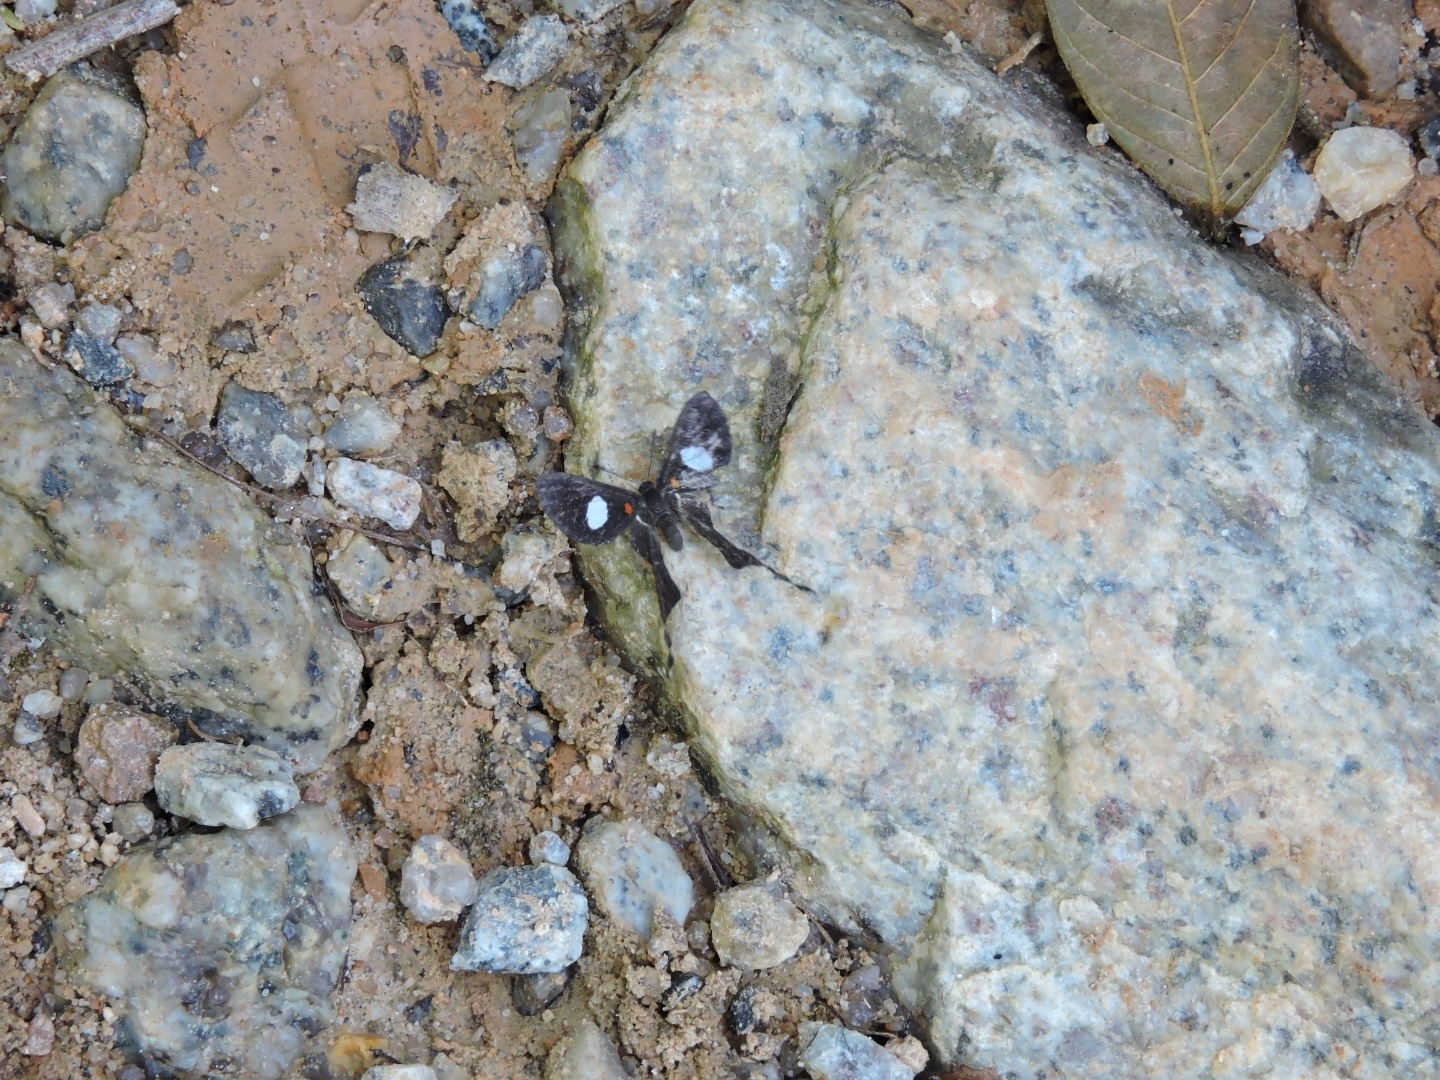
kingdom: Animalia
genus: Syrmatia
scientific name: Syrmatia nyx
